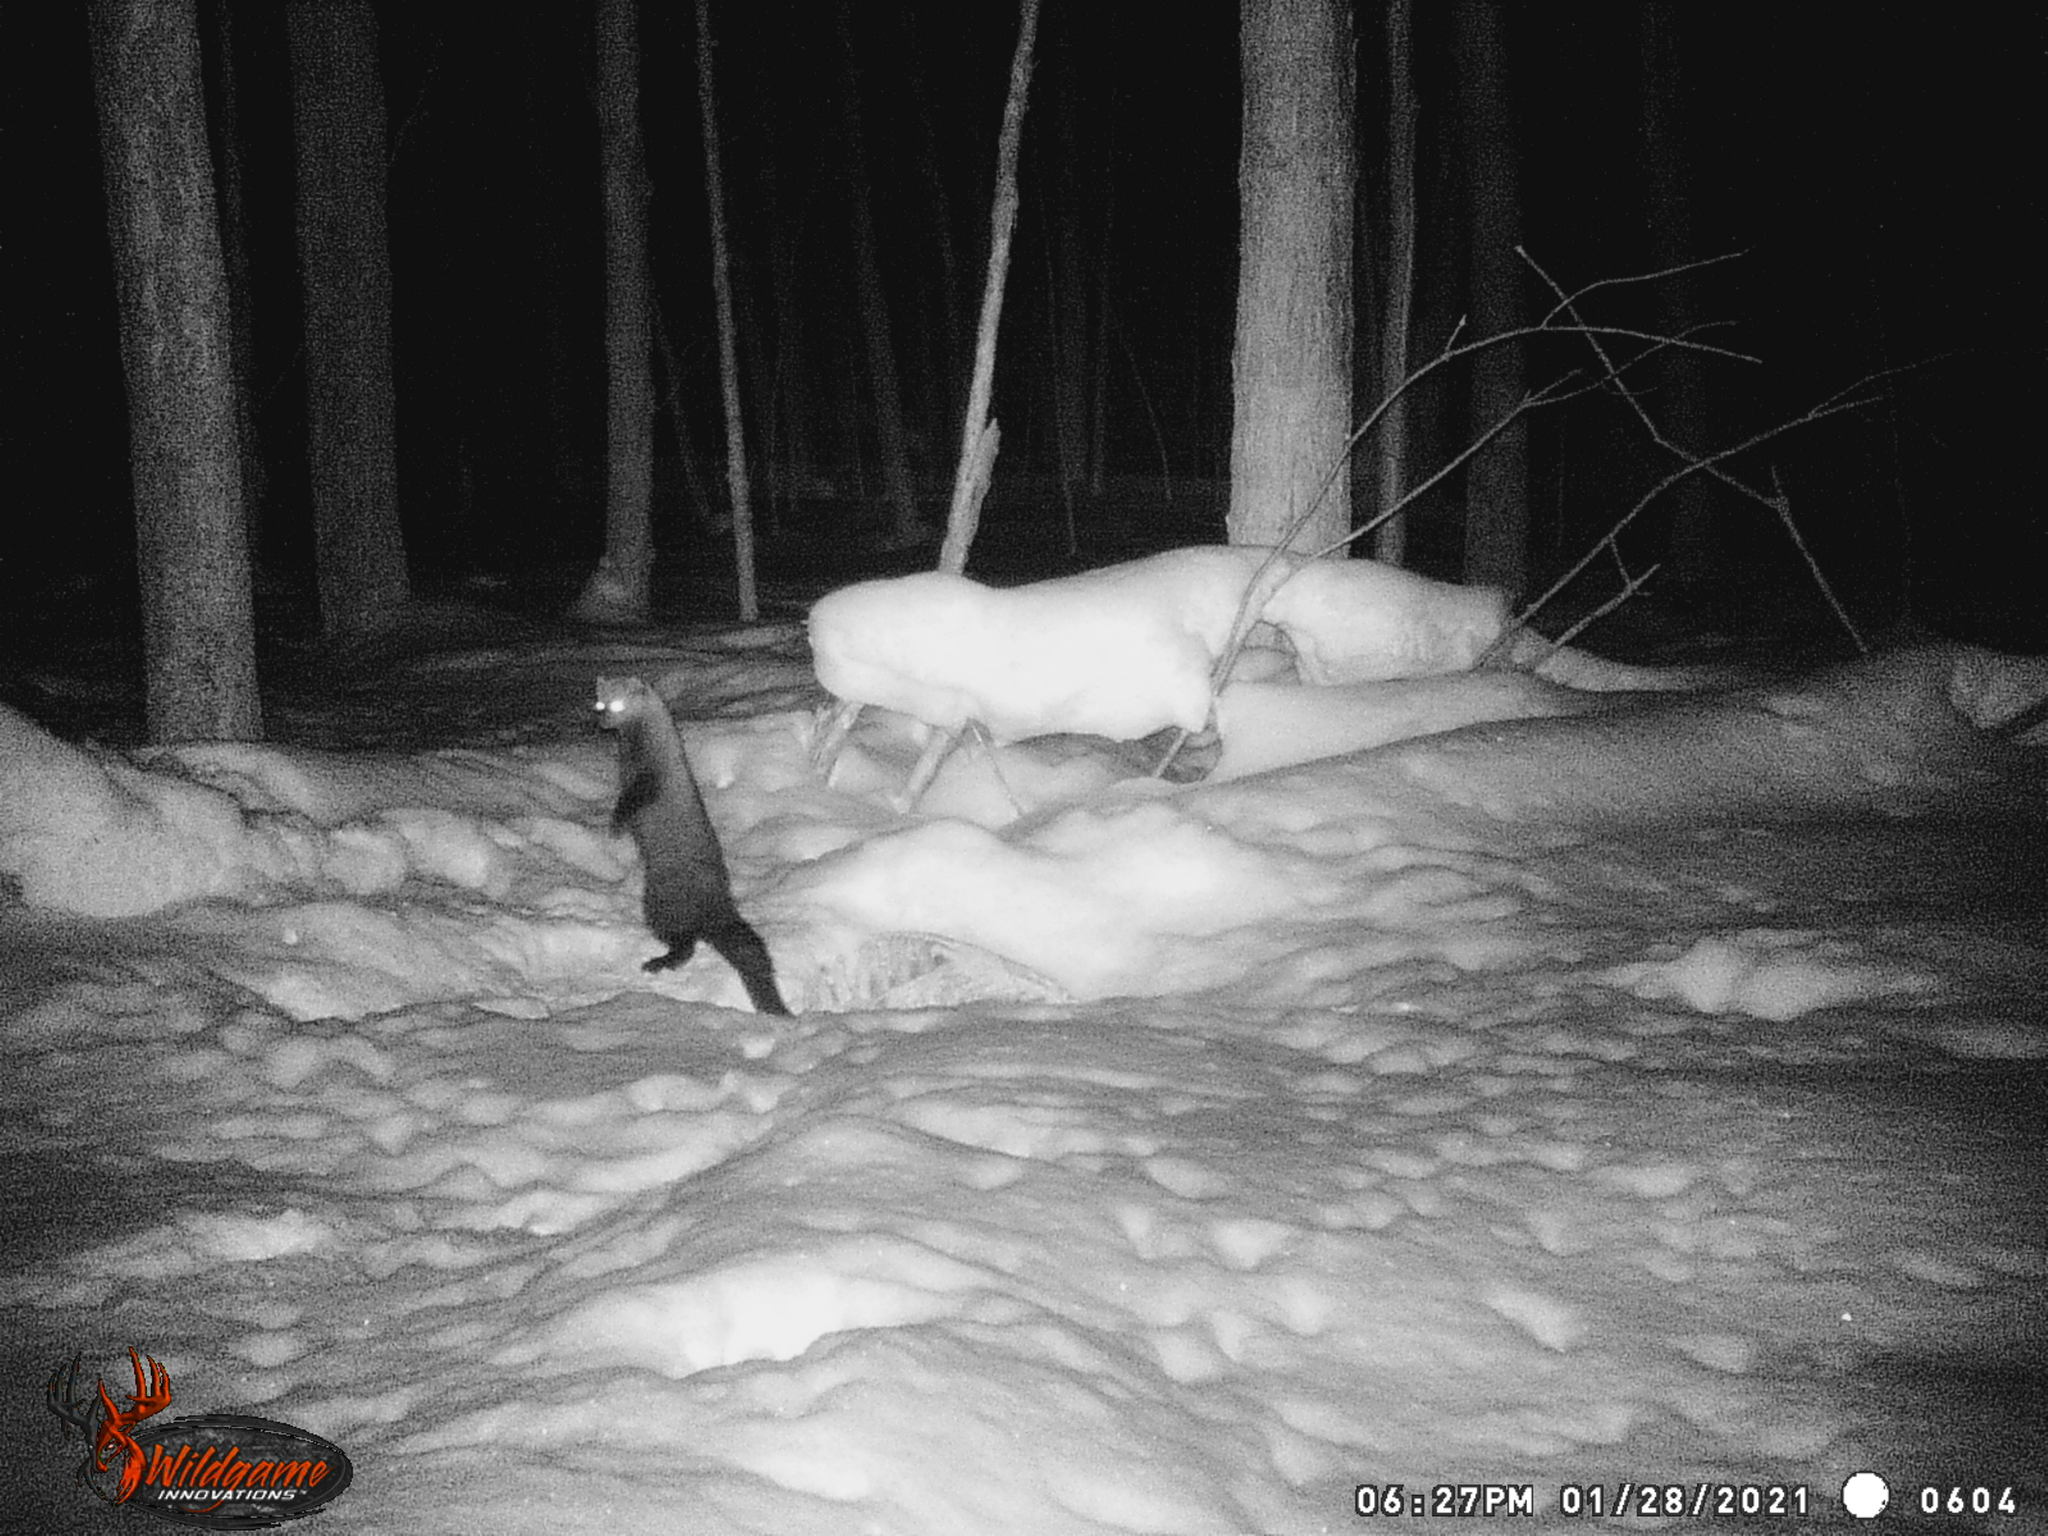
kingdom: Animalia
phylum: Chordata
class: Mammalia
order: Carnivora
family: Mustelidae
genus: Pekania
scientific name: Pekania pennanti
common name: Fisher
